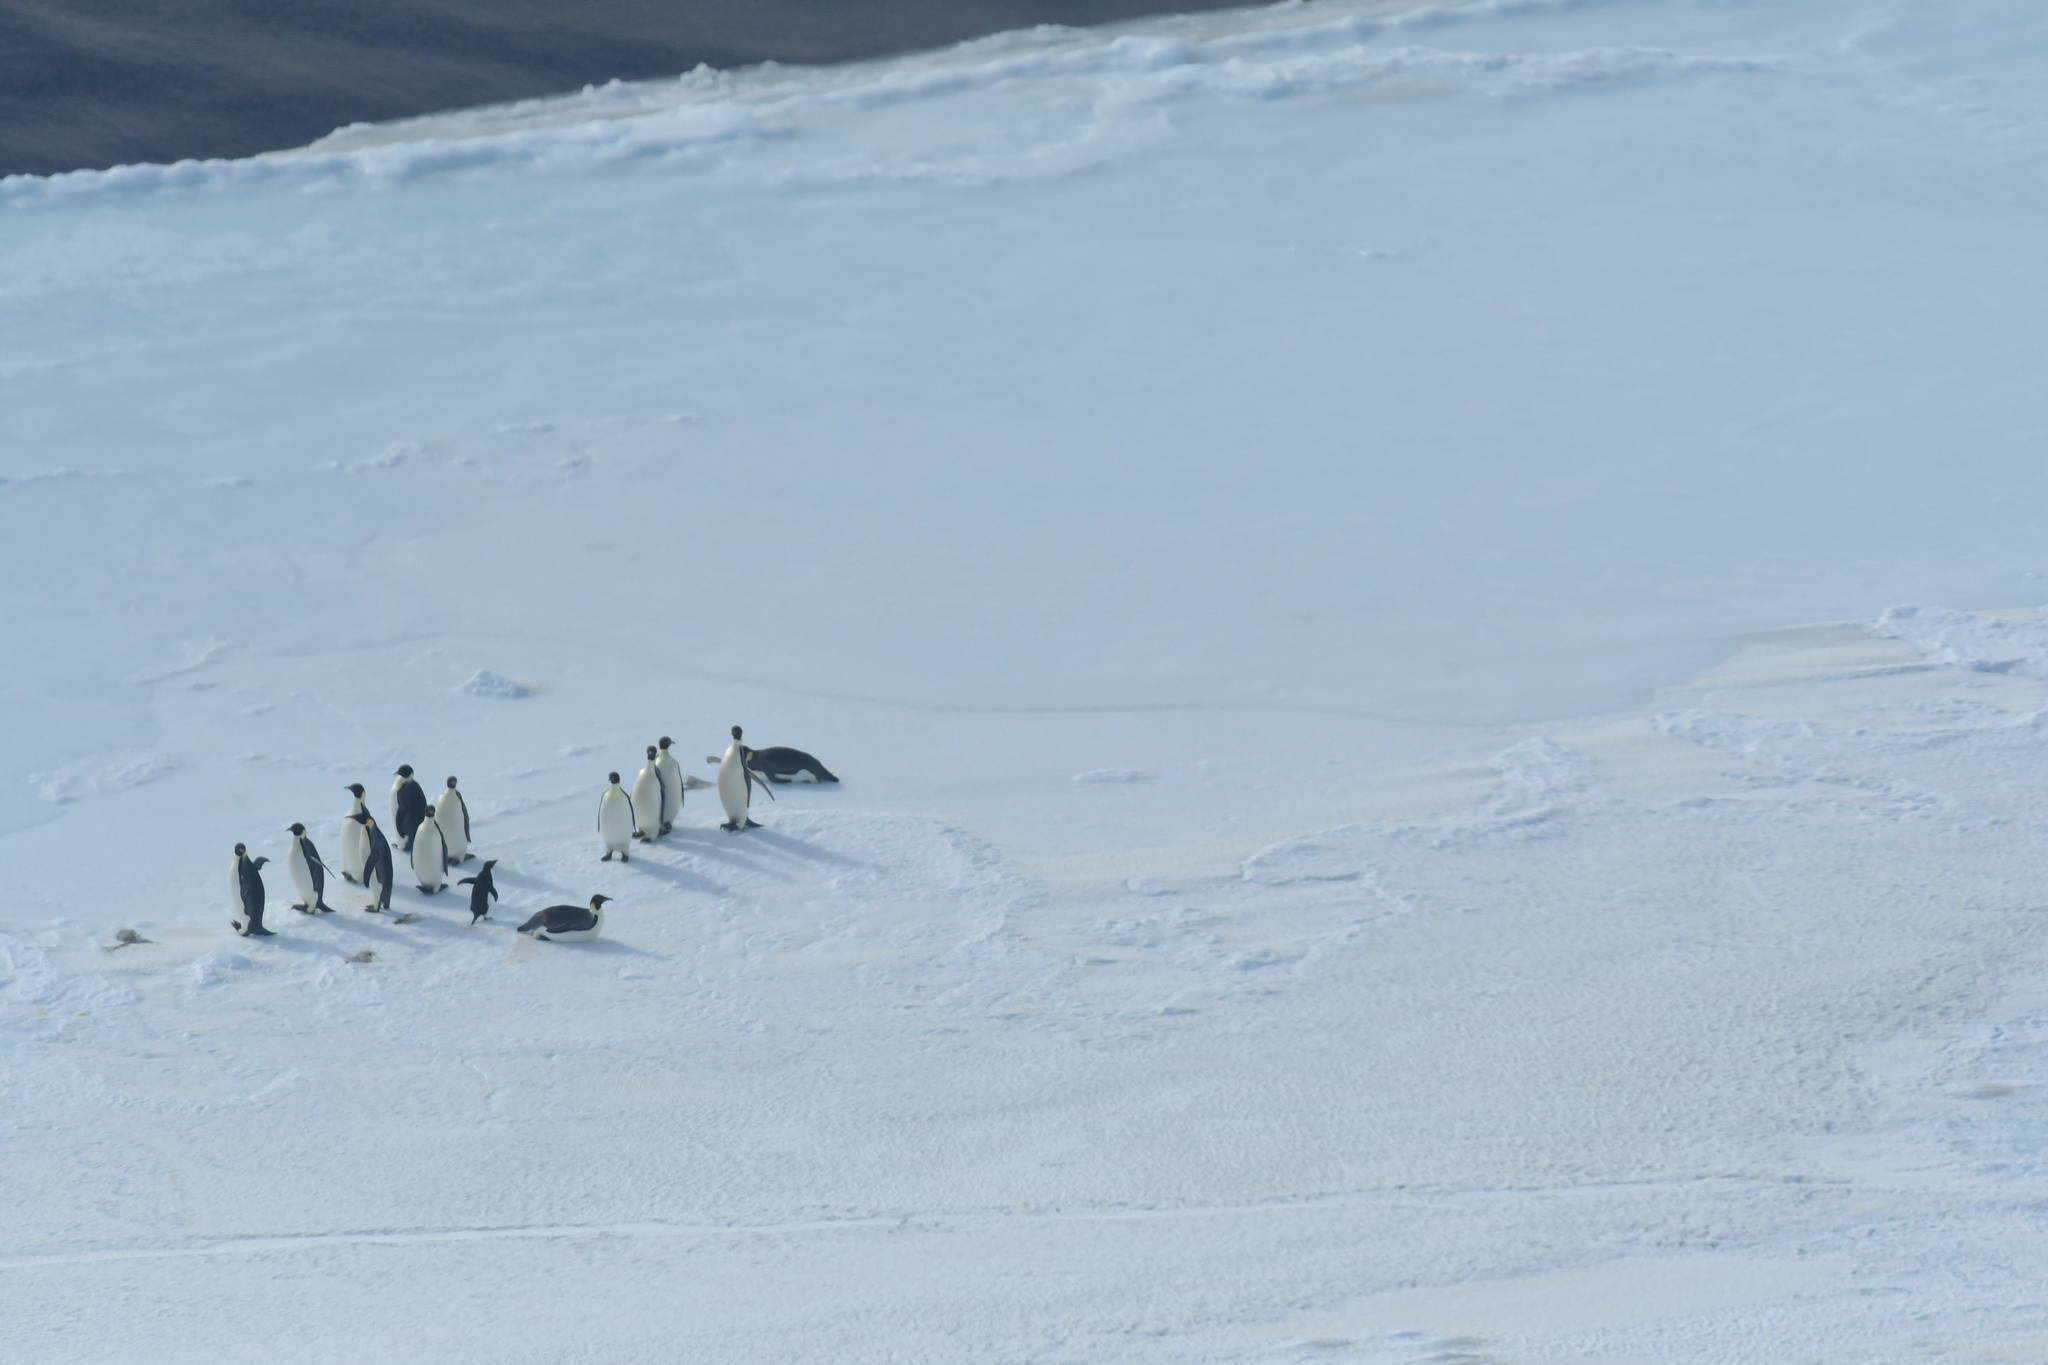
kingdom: Animalia
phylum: Chordata
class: Aves
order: Sphenisciformes
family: Spheniscidae
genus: Pygoscelis
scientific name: Pygoscelis adeliae
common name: Adelie penguin
